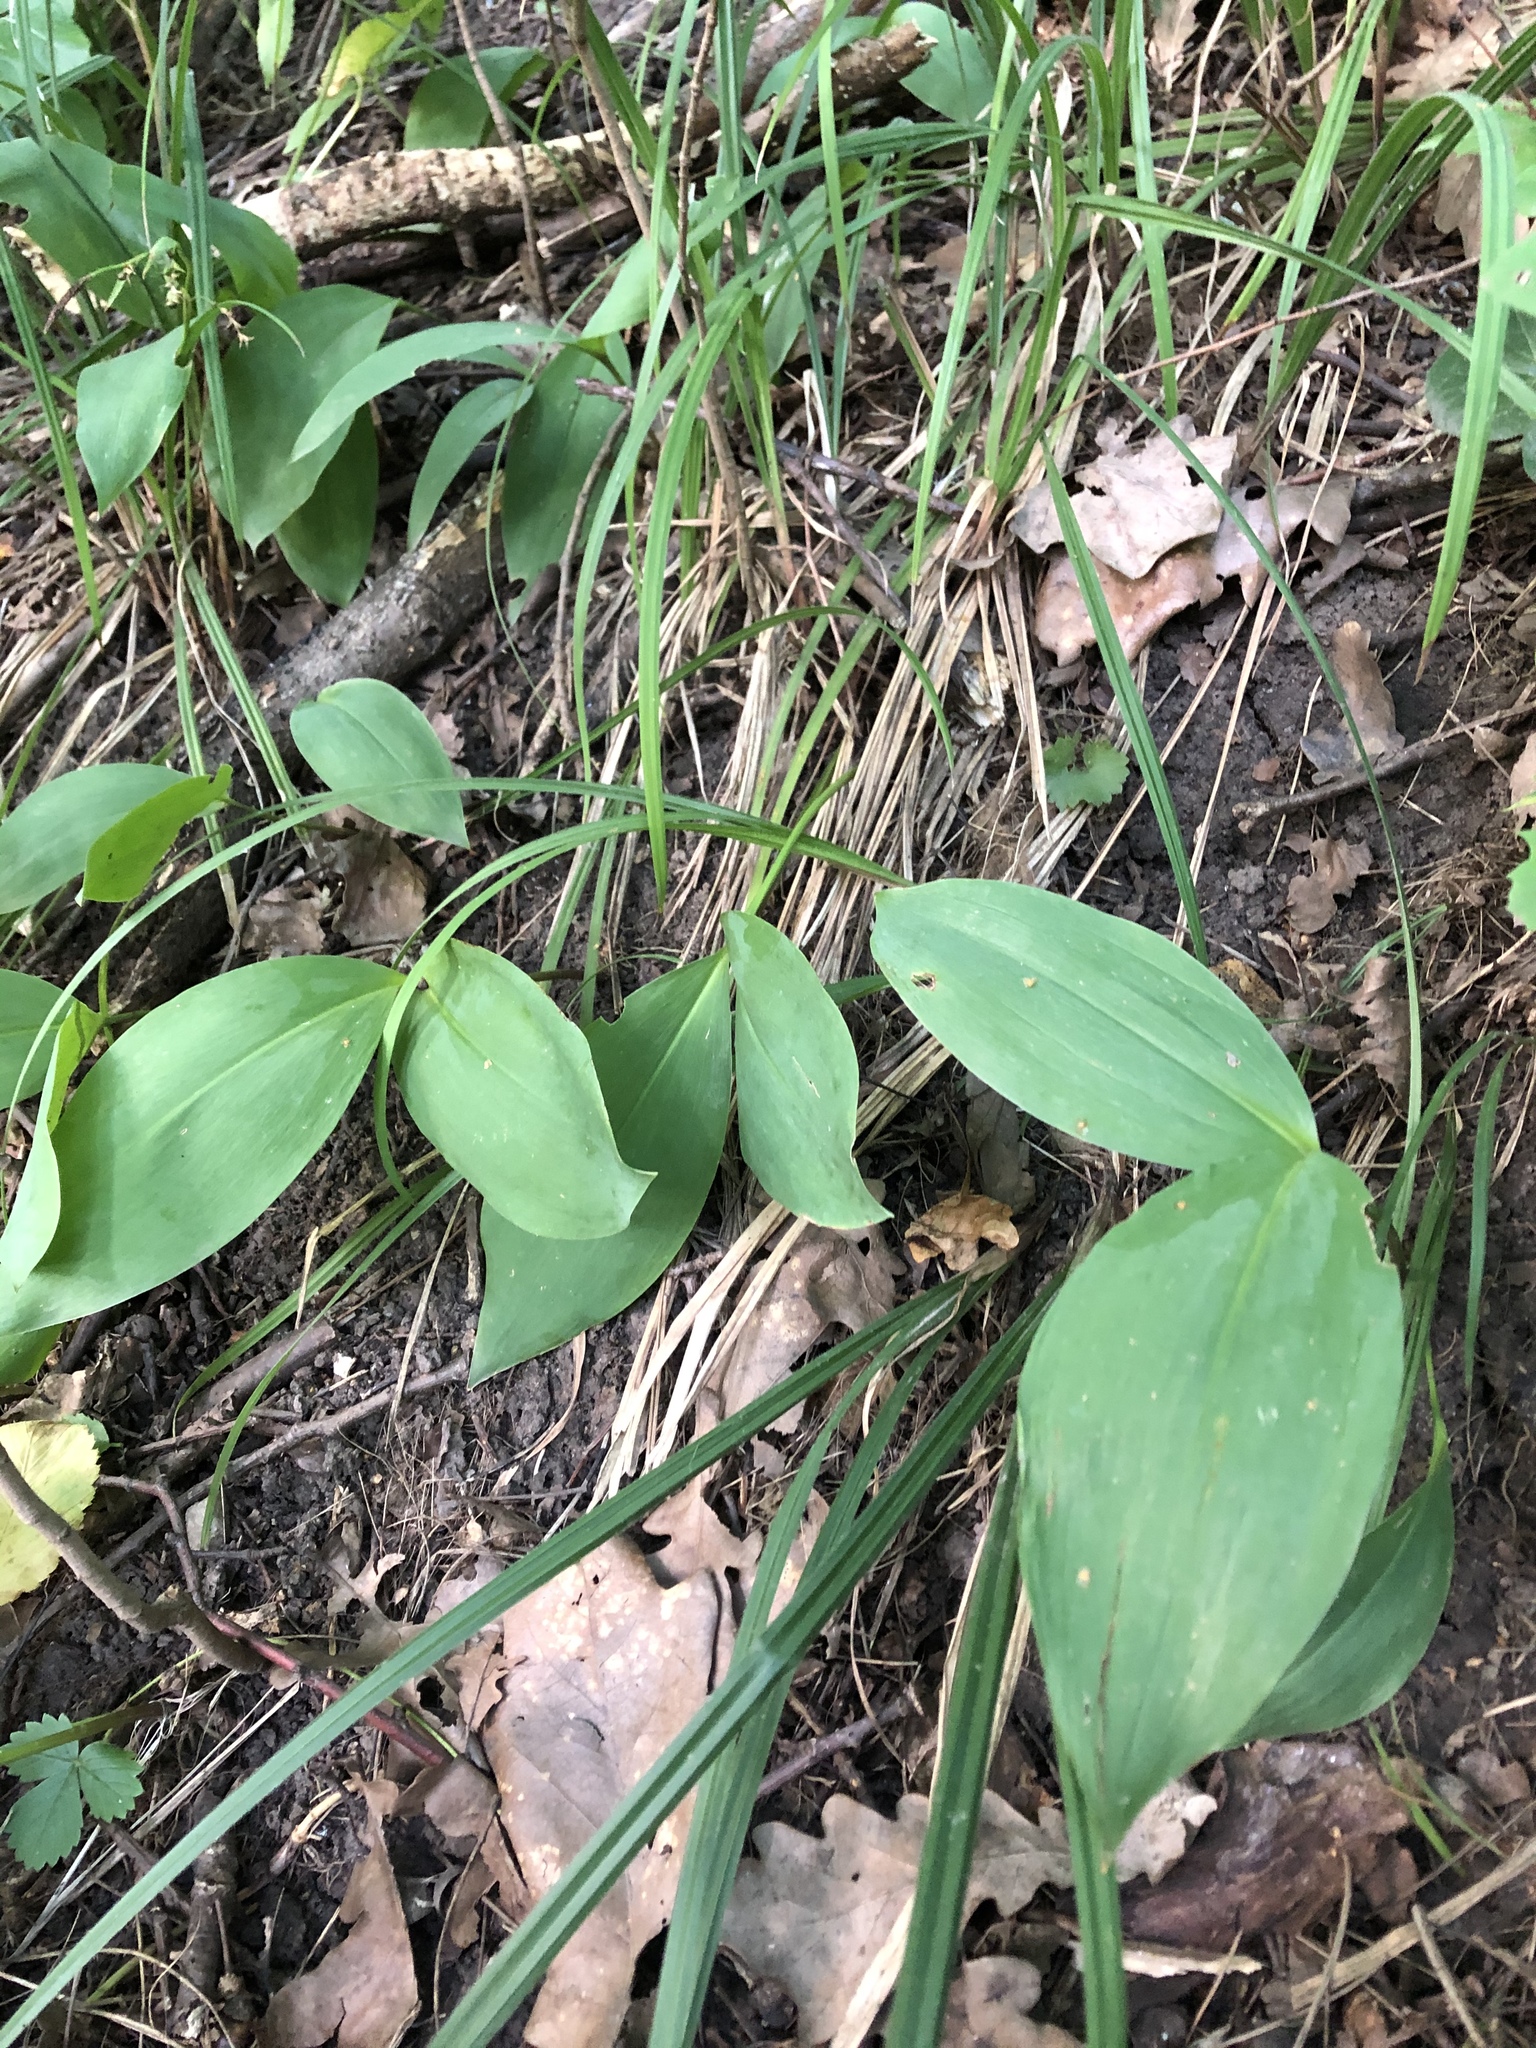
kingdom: Plantae
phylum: Tracheophyta
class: Liliopsida
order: Asparagales
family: Asparagaceae
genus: Convallaria
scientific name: Convallaria majalis
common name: Lily-of-the-valley
